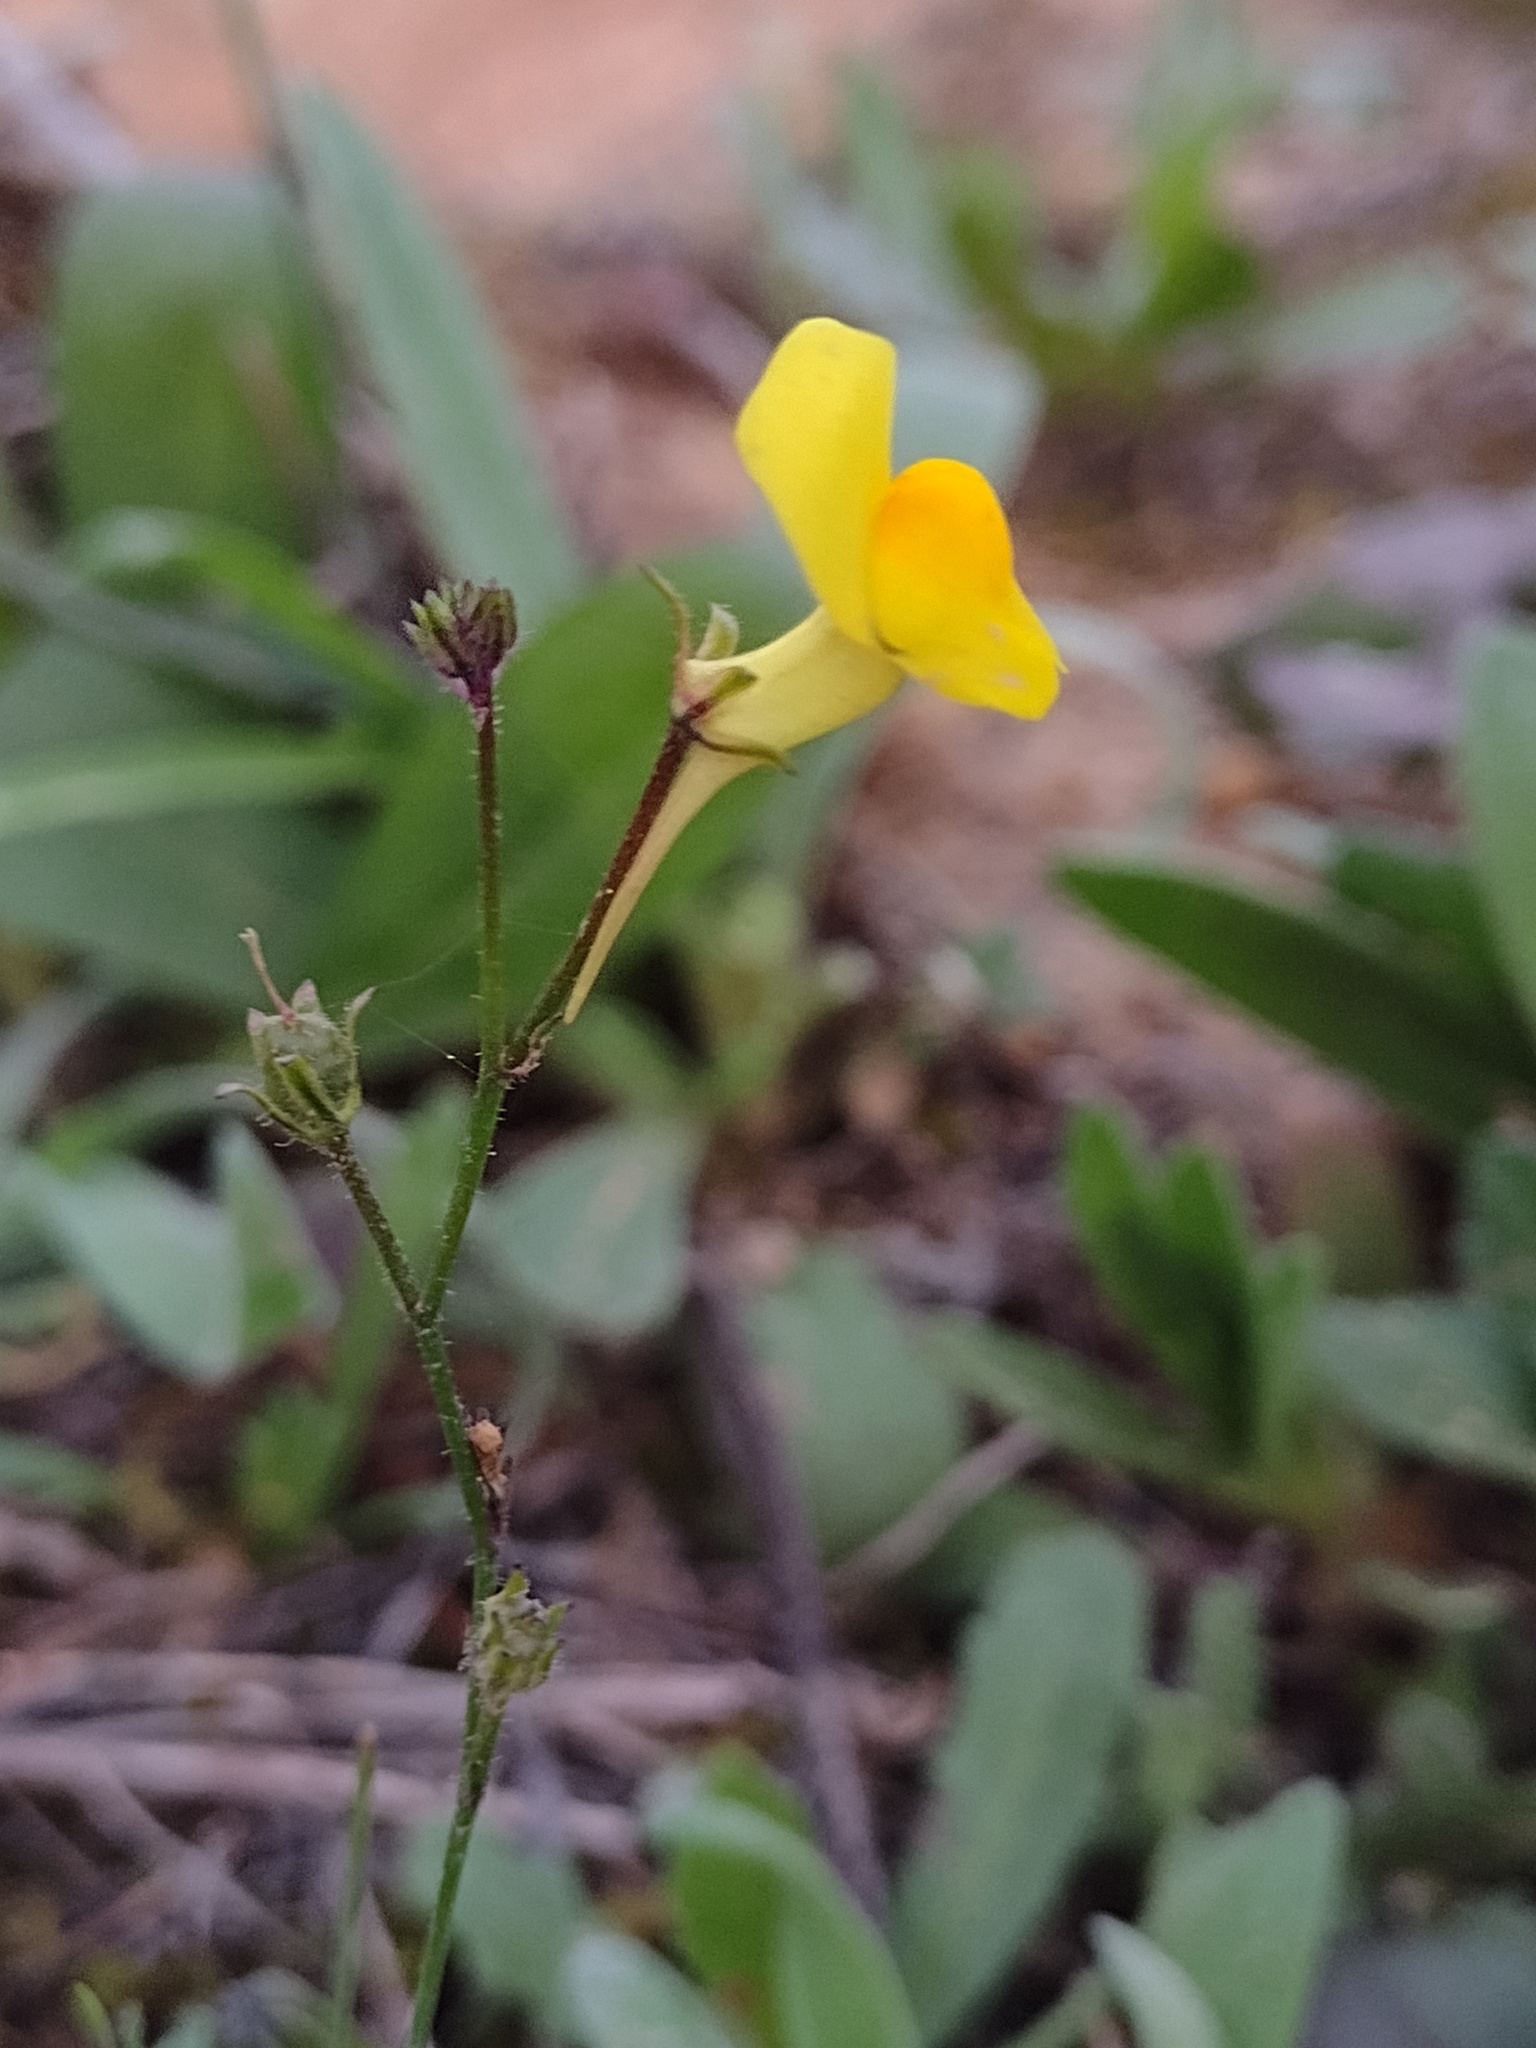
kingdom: Plantae
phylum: Tracheophyta
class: Magnoliopsida
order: Lamiales
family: Plantaginaceae
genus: Linaria
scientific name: Linaria spartea
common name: Ballast toadflax
